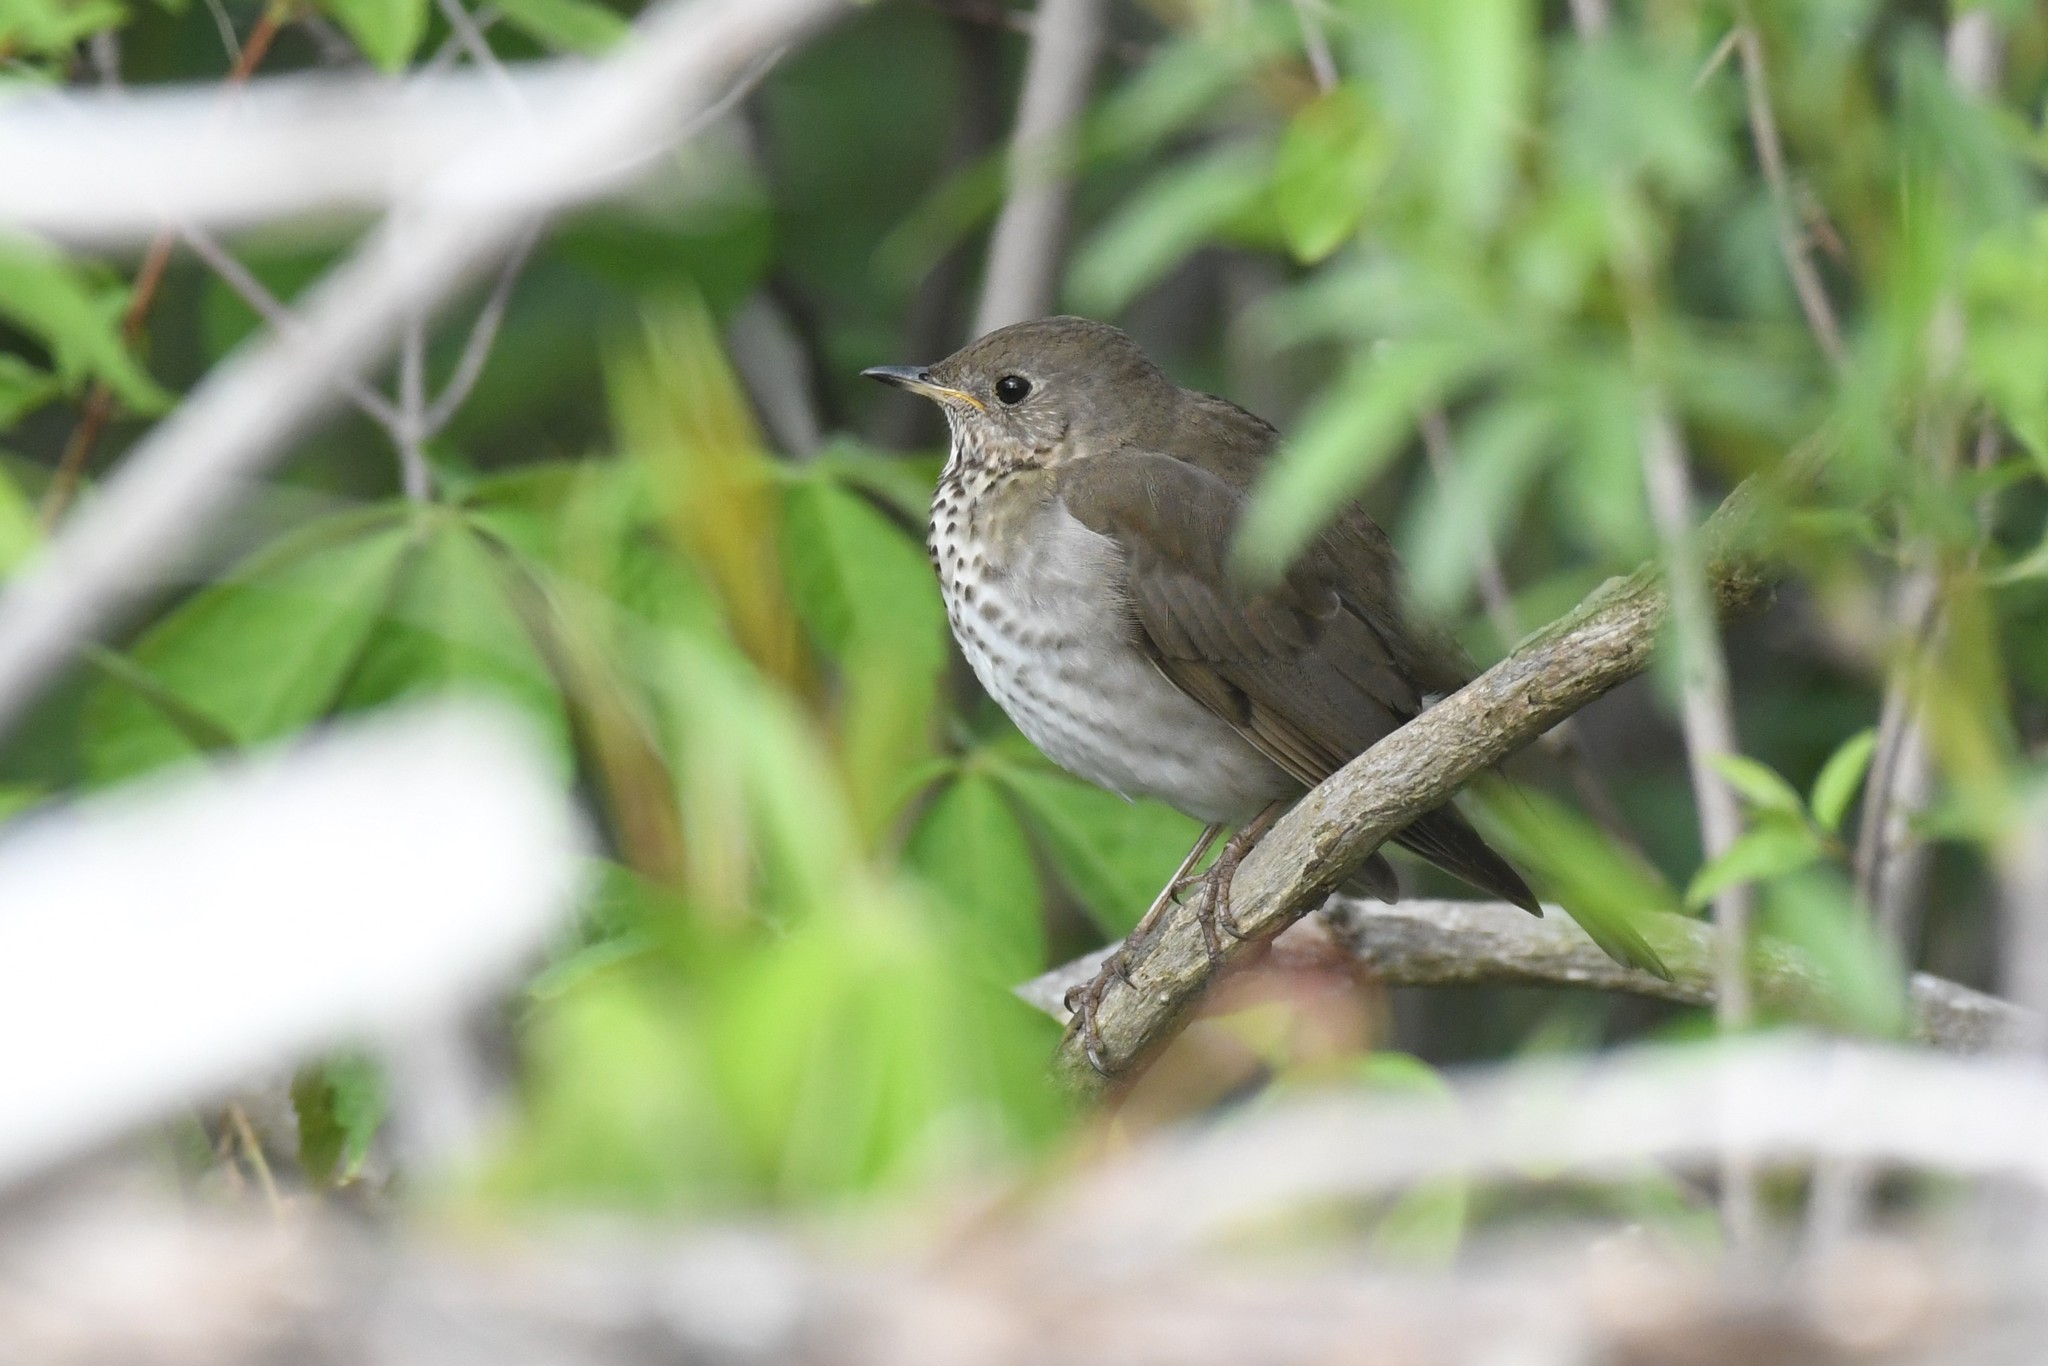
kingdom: Animalia
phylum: Chordata
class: Aves
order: Passeriformes
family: Turdidae
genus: Catharus
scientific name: Catharus minimus
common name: Grey-cheeked thrush
